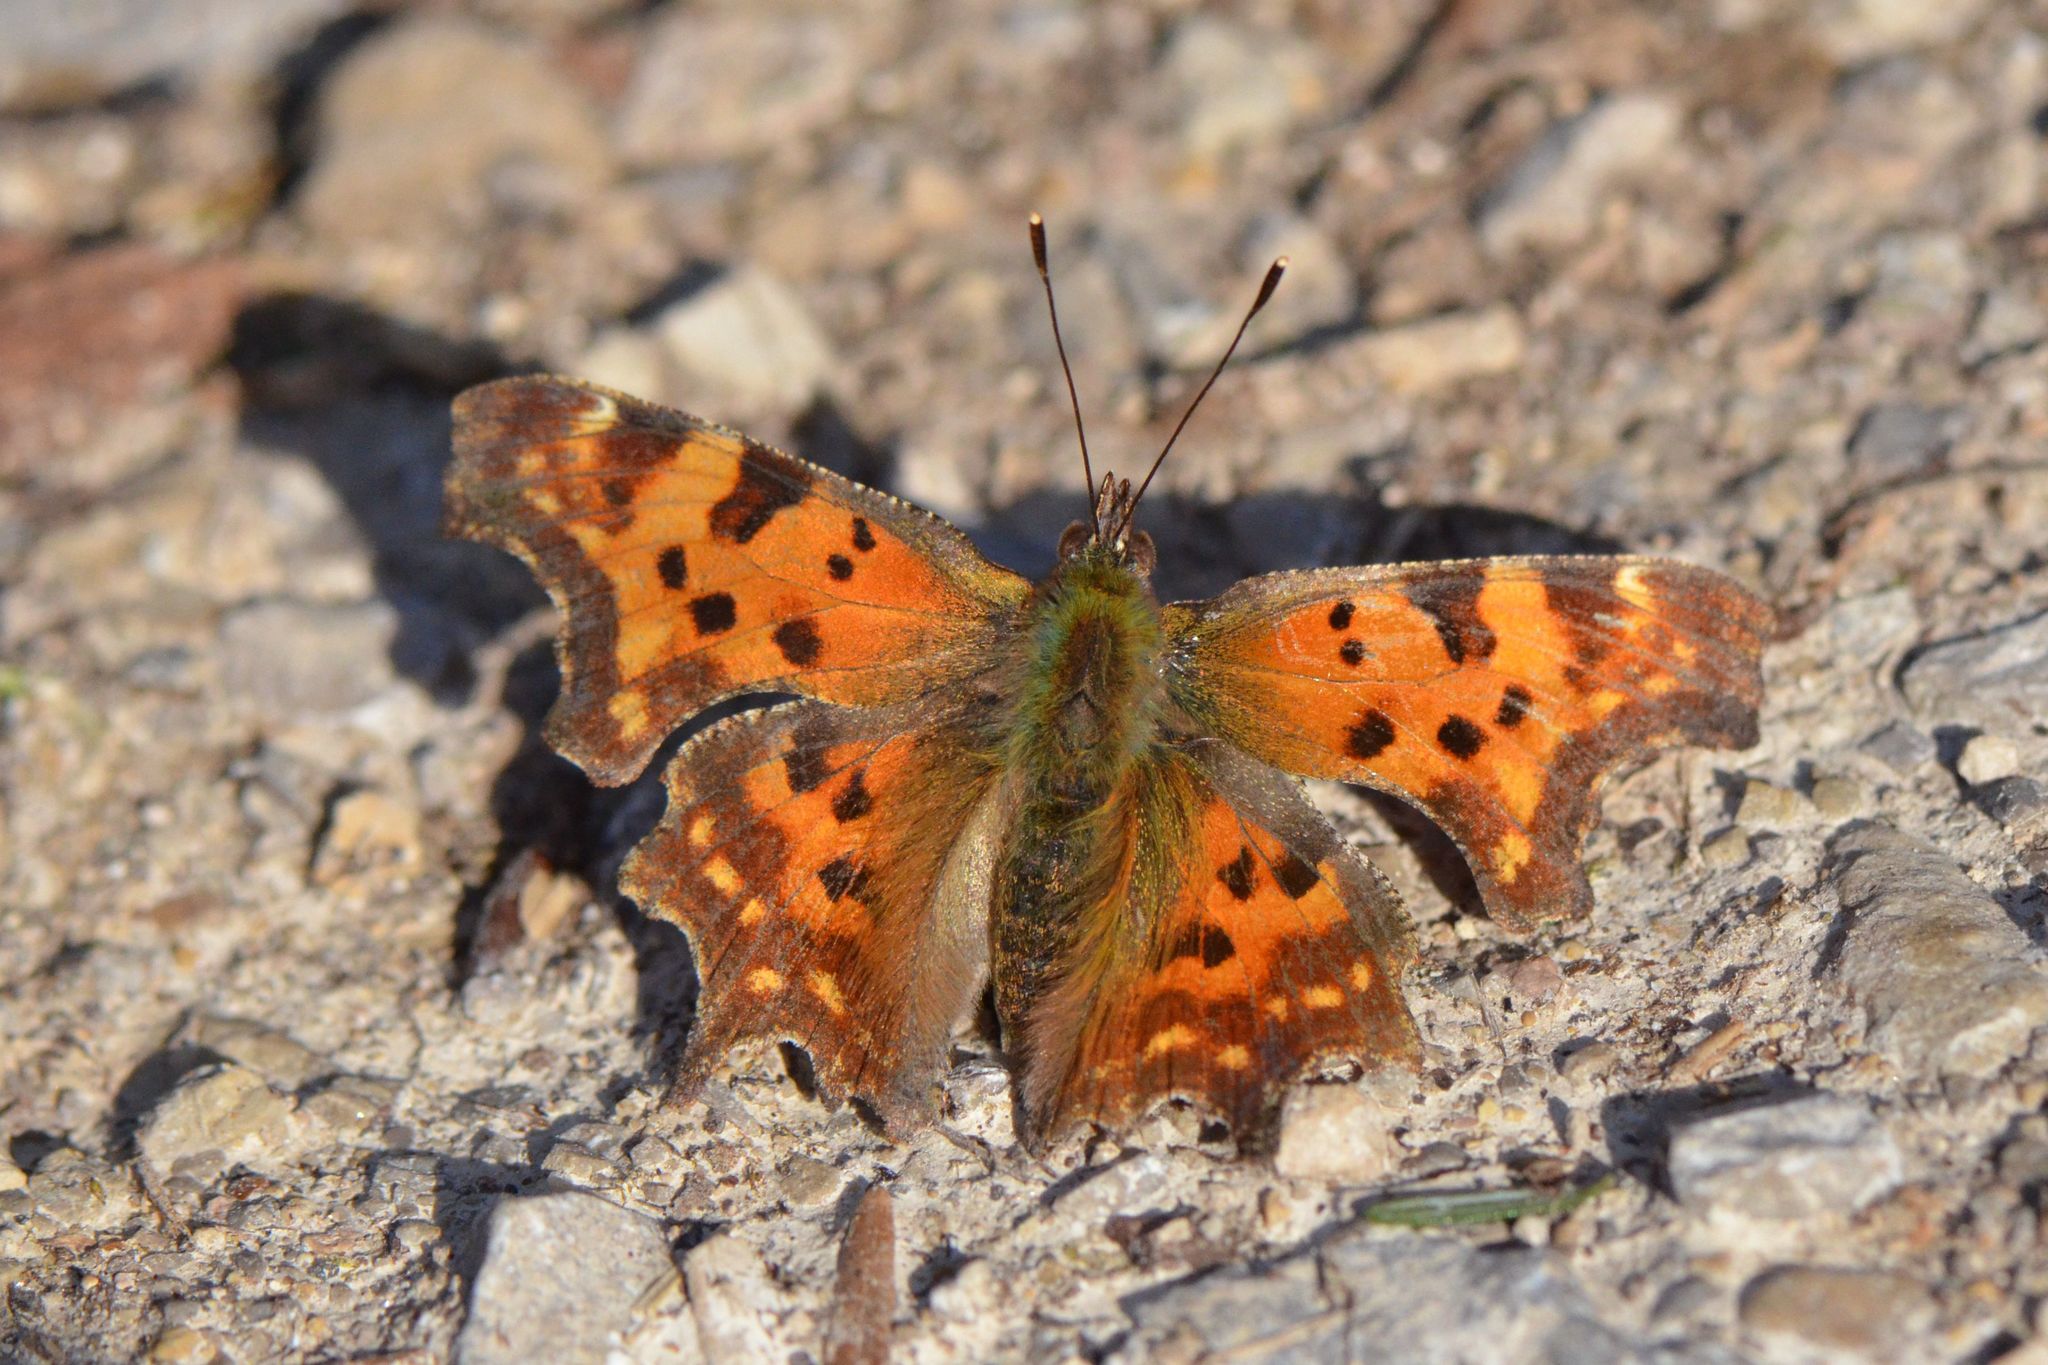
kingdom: Animalia
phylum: Arthropoda
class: Insecta
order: Lepidoptera
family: Nymphalidae
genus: Polygonia
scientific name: Polygonia c-album
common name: Comma
